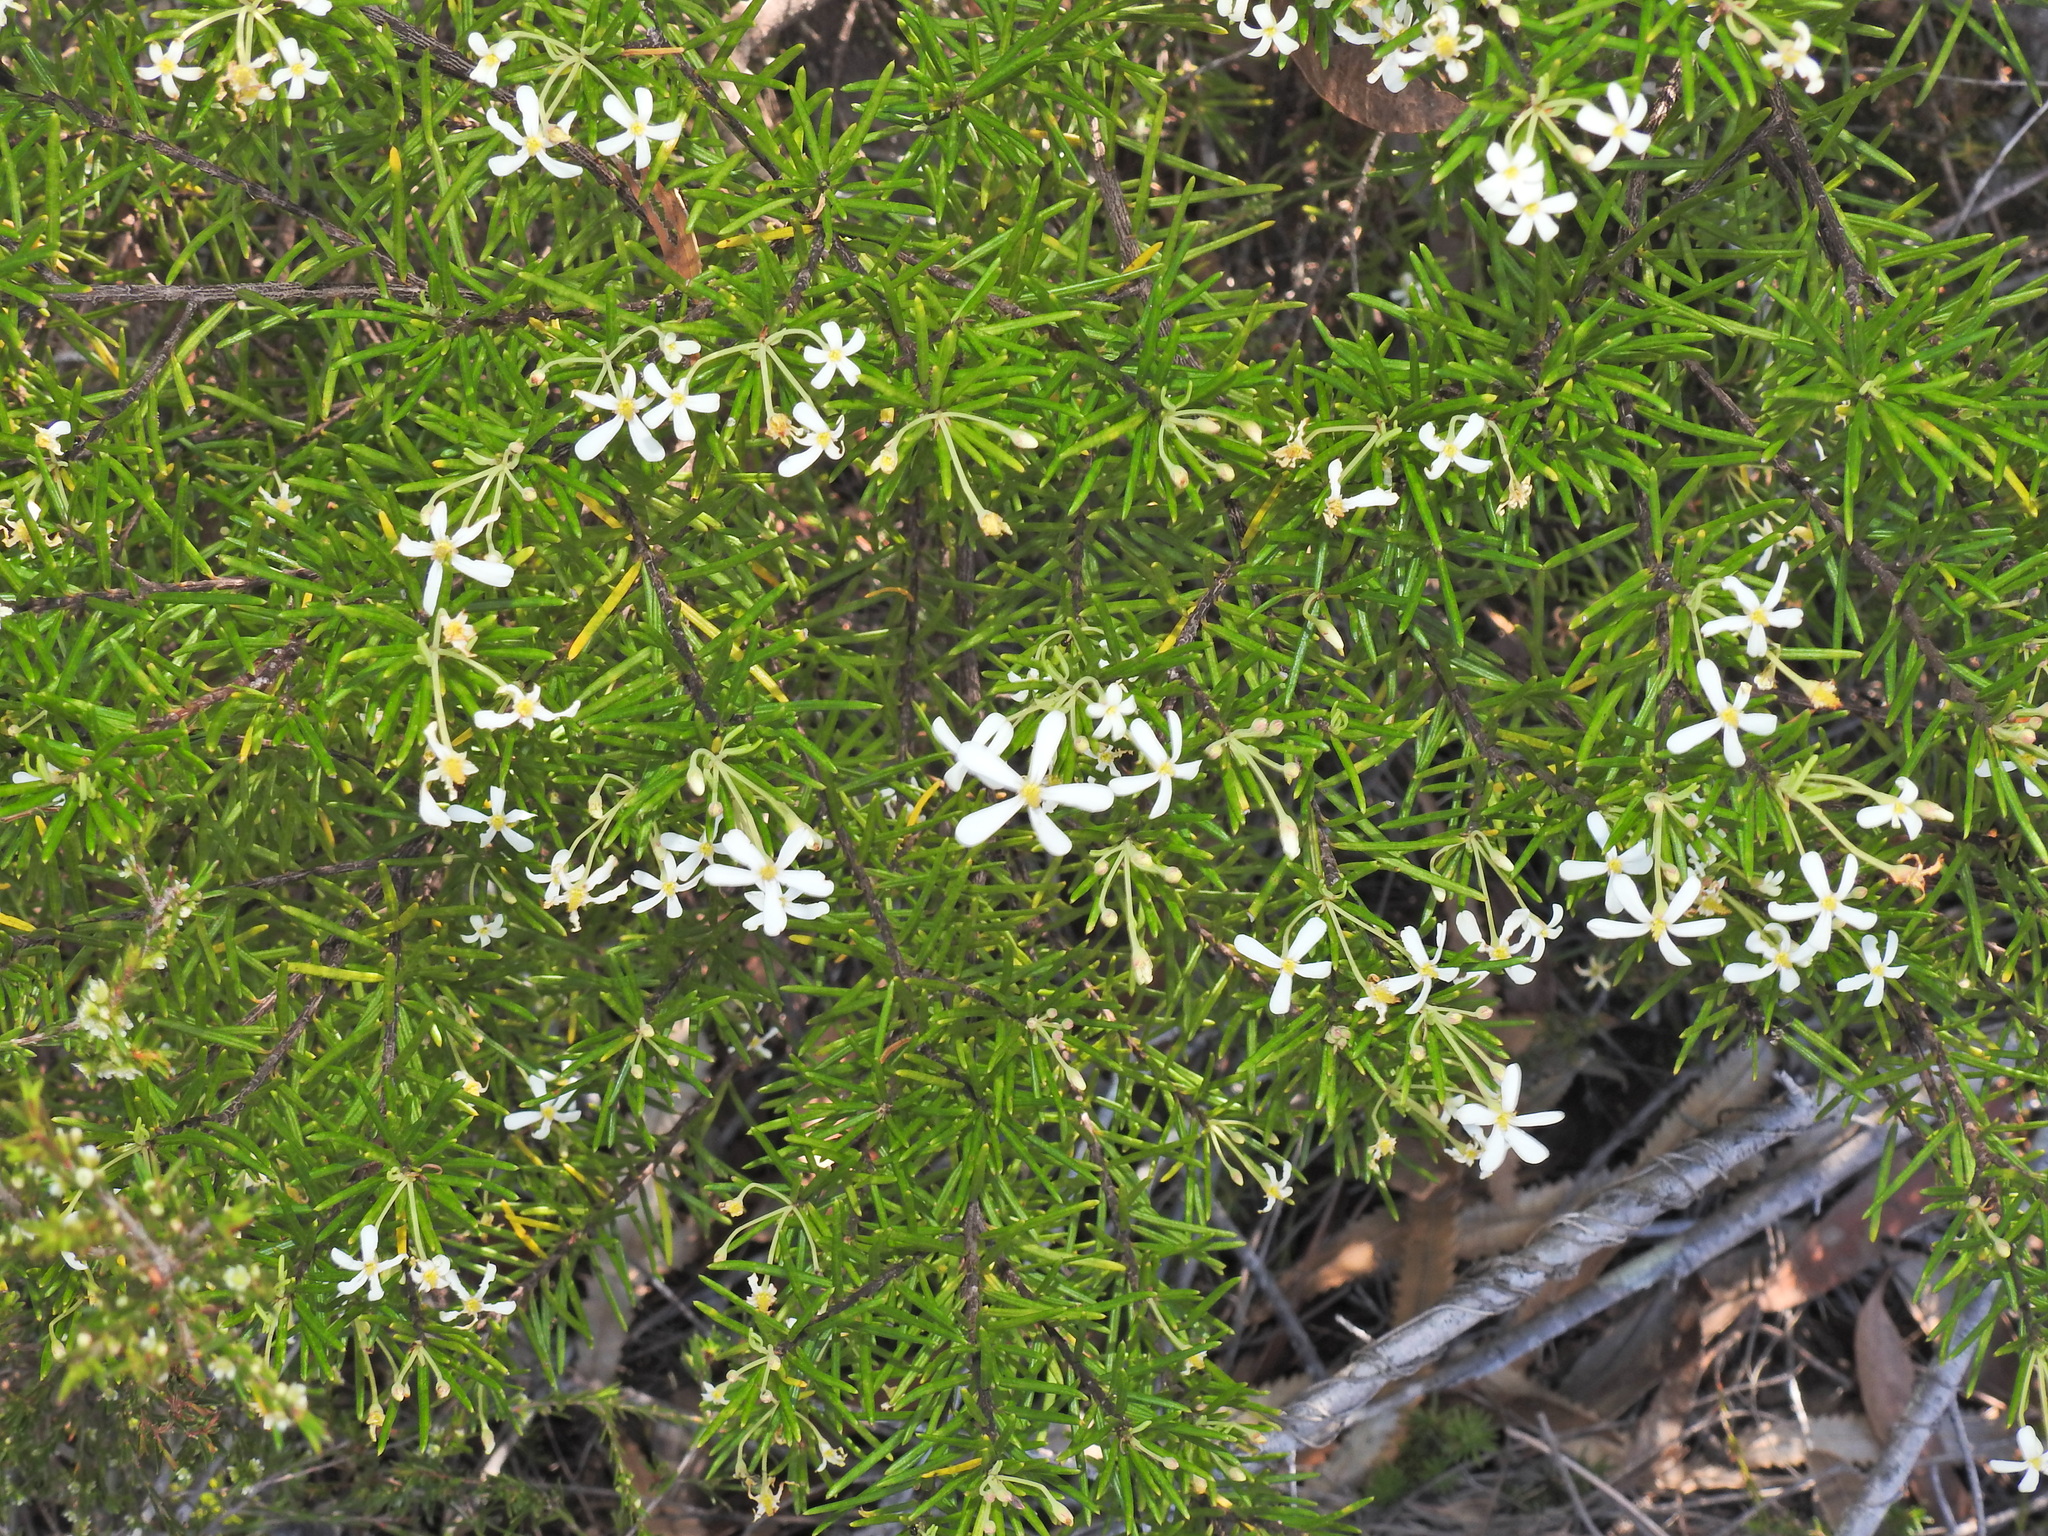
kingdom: Plantae
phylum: Tracheophyta
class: Magnoliopsida
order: Malpighiales
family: Euphorbiaceae
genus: Ricinocarpos
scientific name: Ricinocarpos pinifolius
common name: Weddingbush
